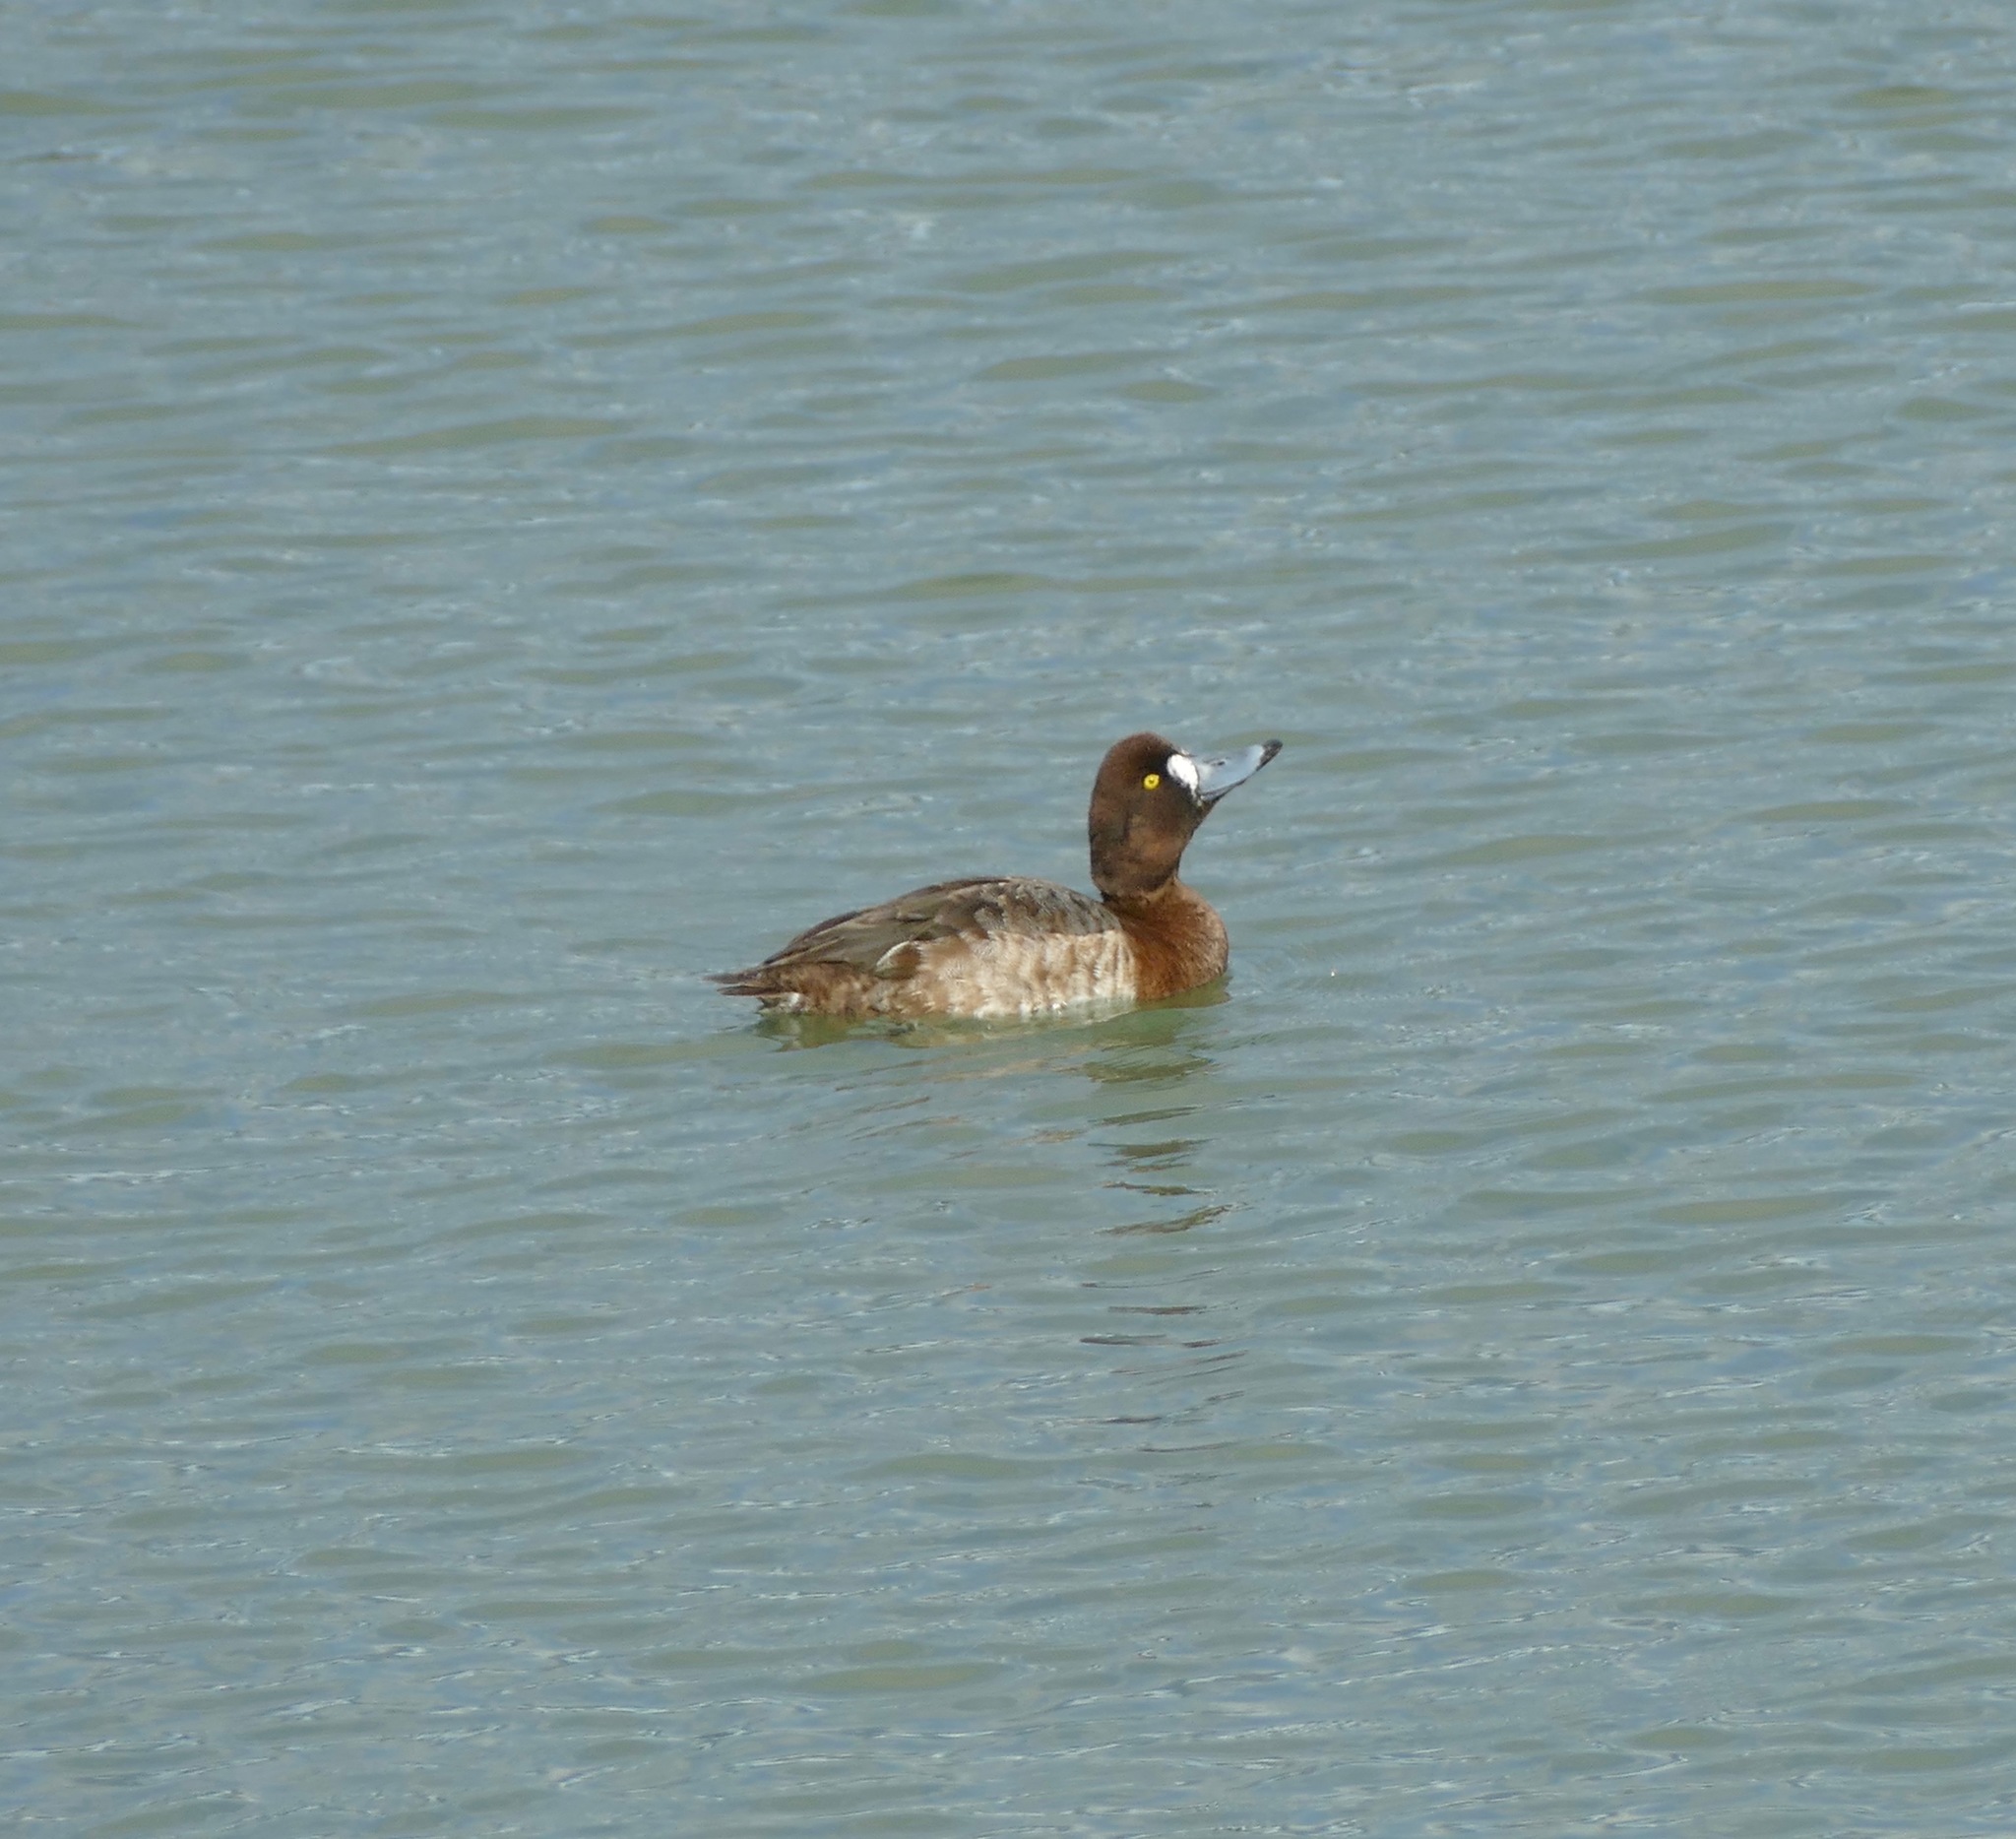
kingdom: Animalia
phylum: Chordata
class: Aves
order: Anseriformes
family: Anatidae
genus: Aythya
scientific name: Aythya affinis
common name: Lesser scaup
